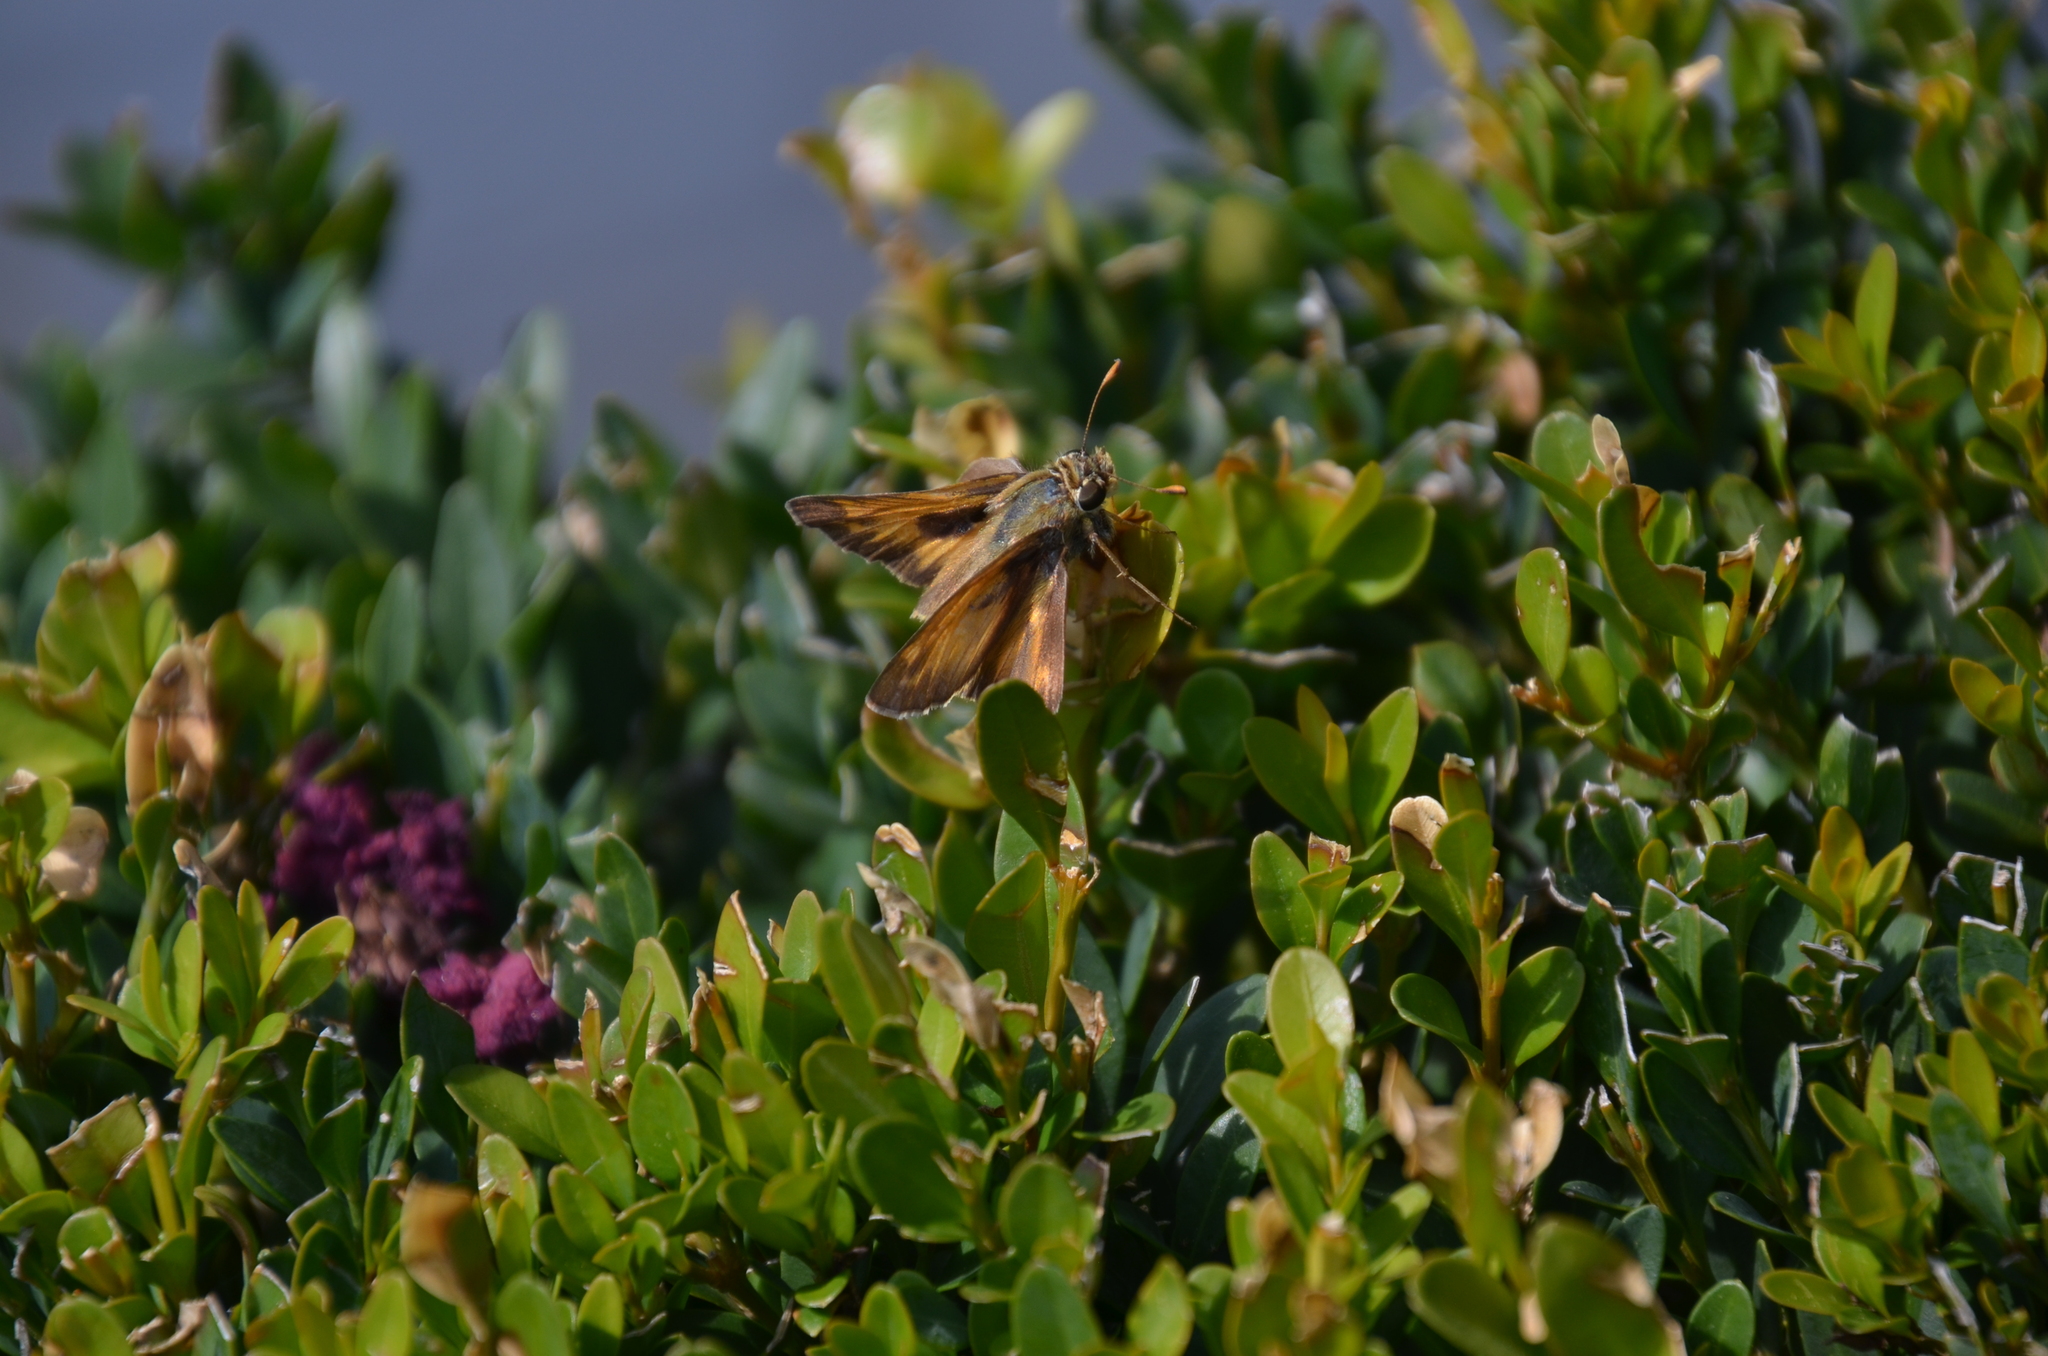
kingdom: Animalia
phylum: Arthropoda
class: Insecta
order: Lepidoptera
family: Hesperiidae
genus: Atalopedes
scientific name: Atalopedes
